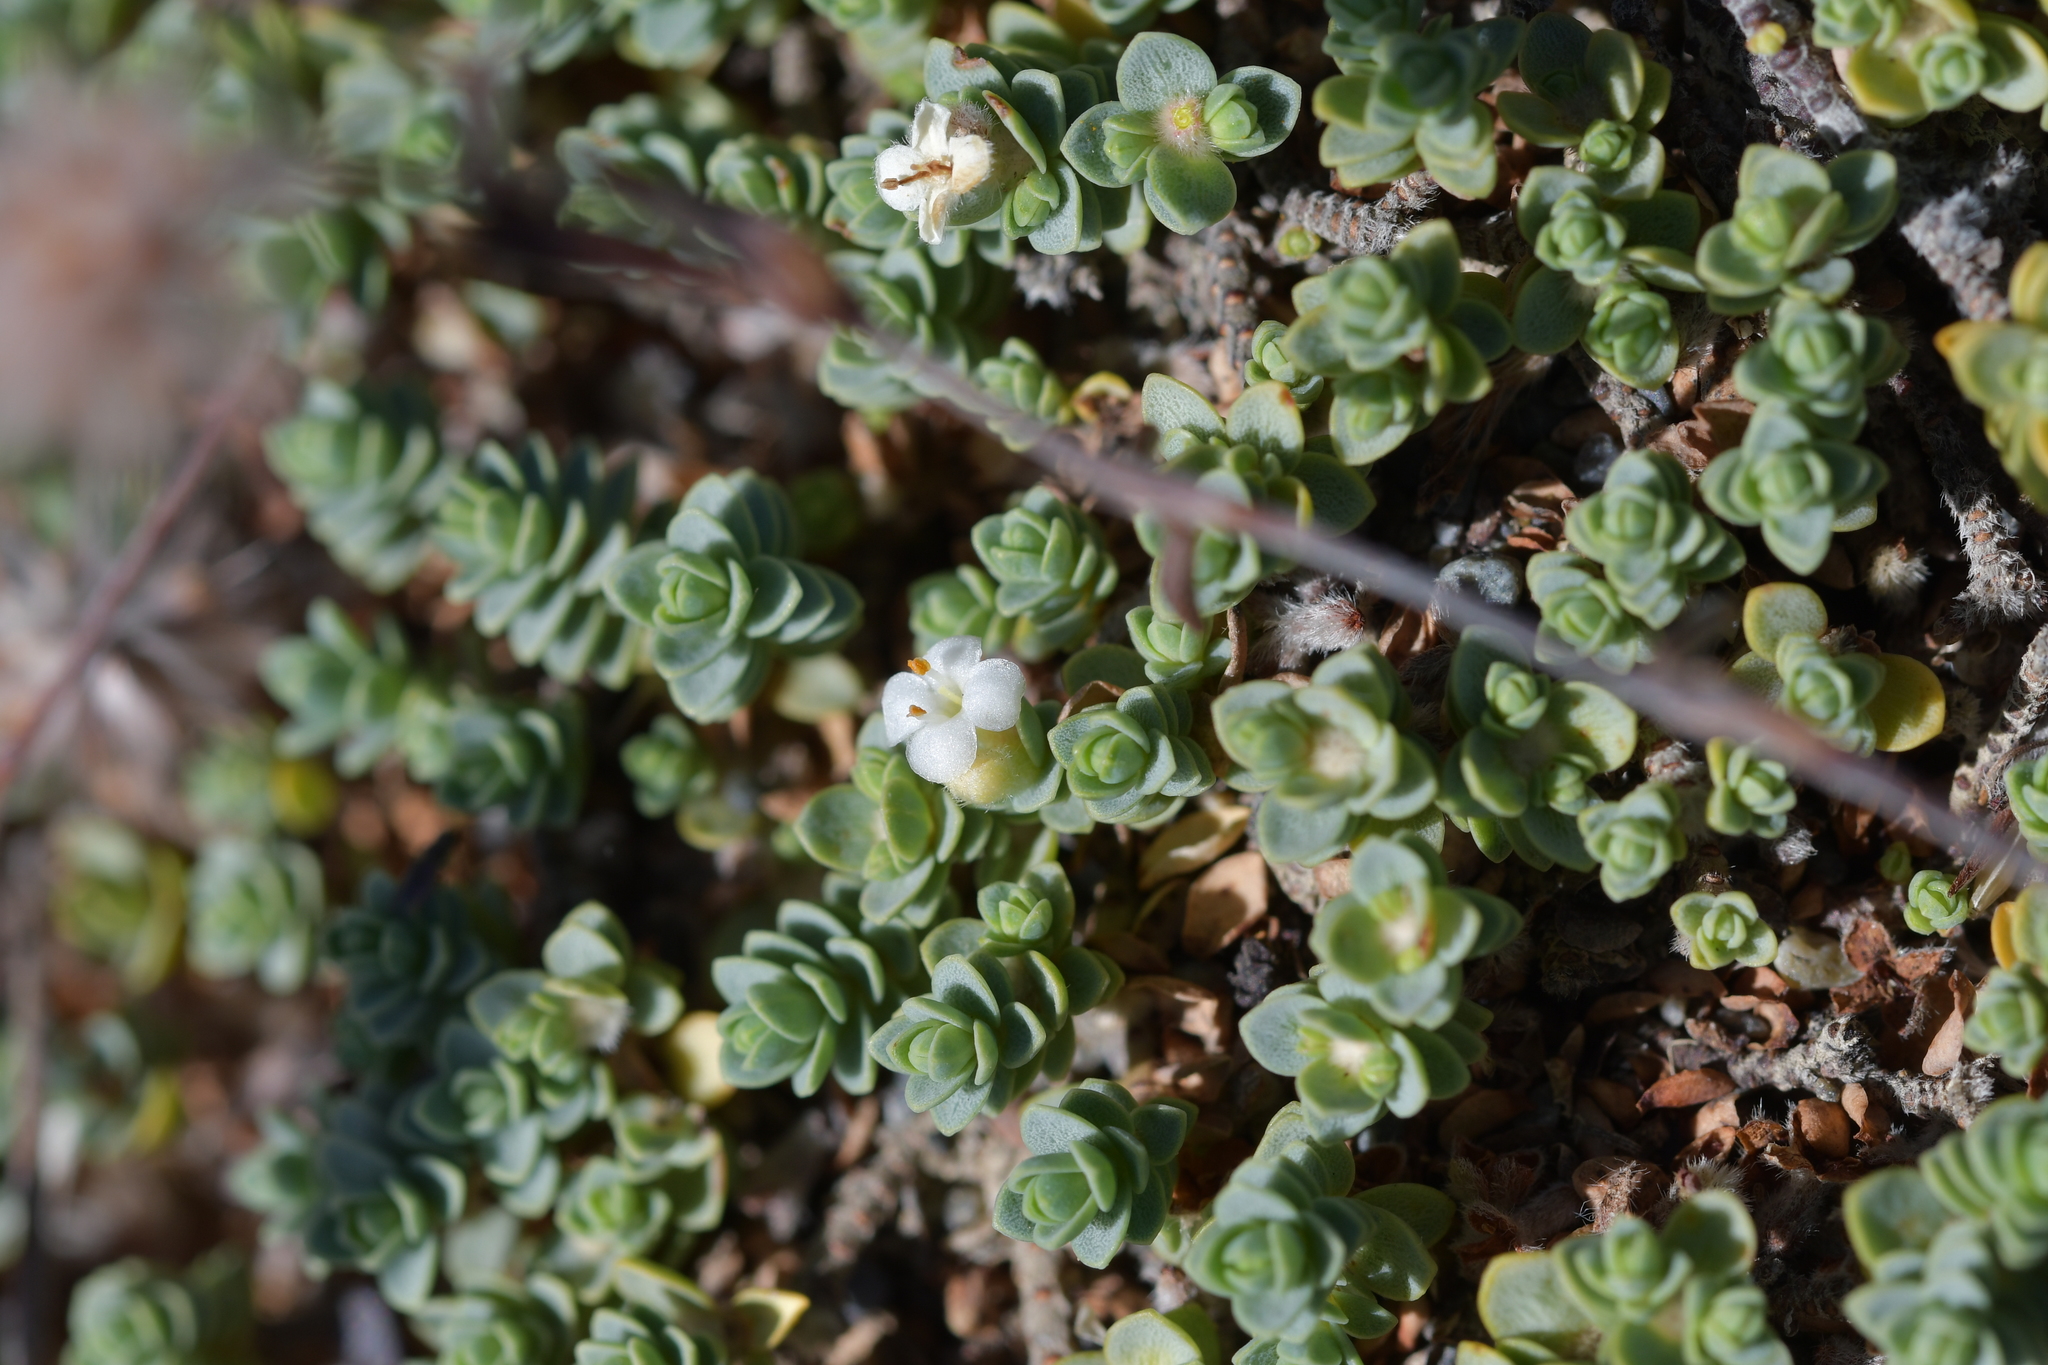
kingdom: Plantae
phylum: Tracheophyta
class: Magnoliopsida
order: Malvales
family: Thymelaeaceae
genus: Pimelea
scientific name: Pimelea carnosa
